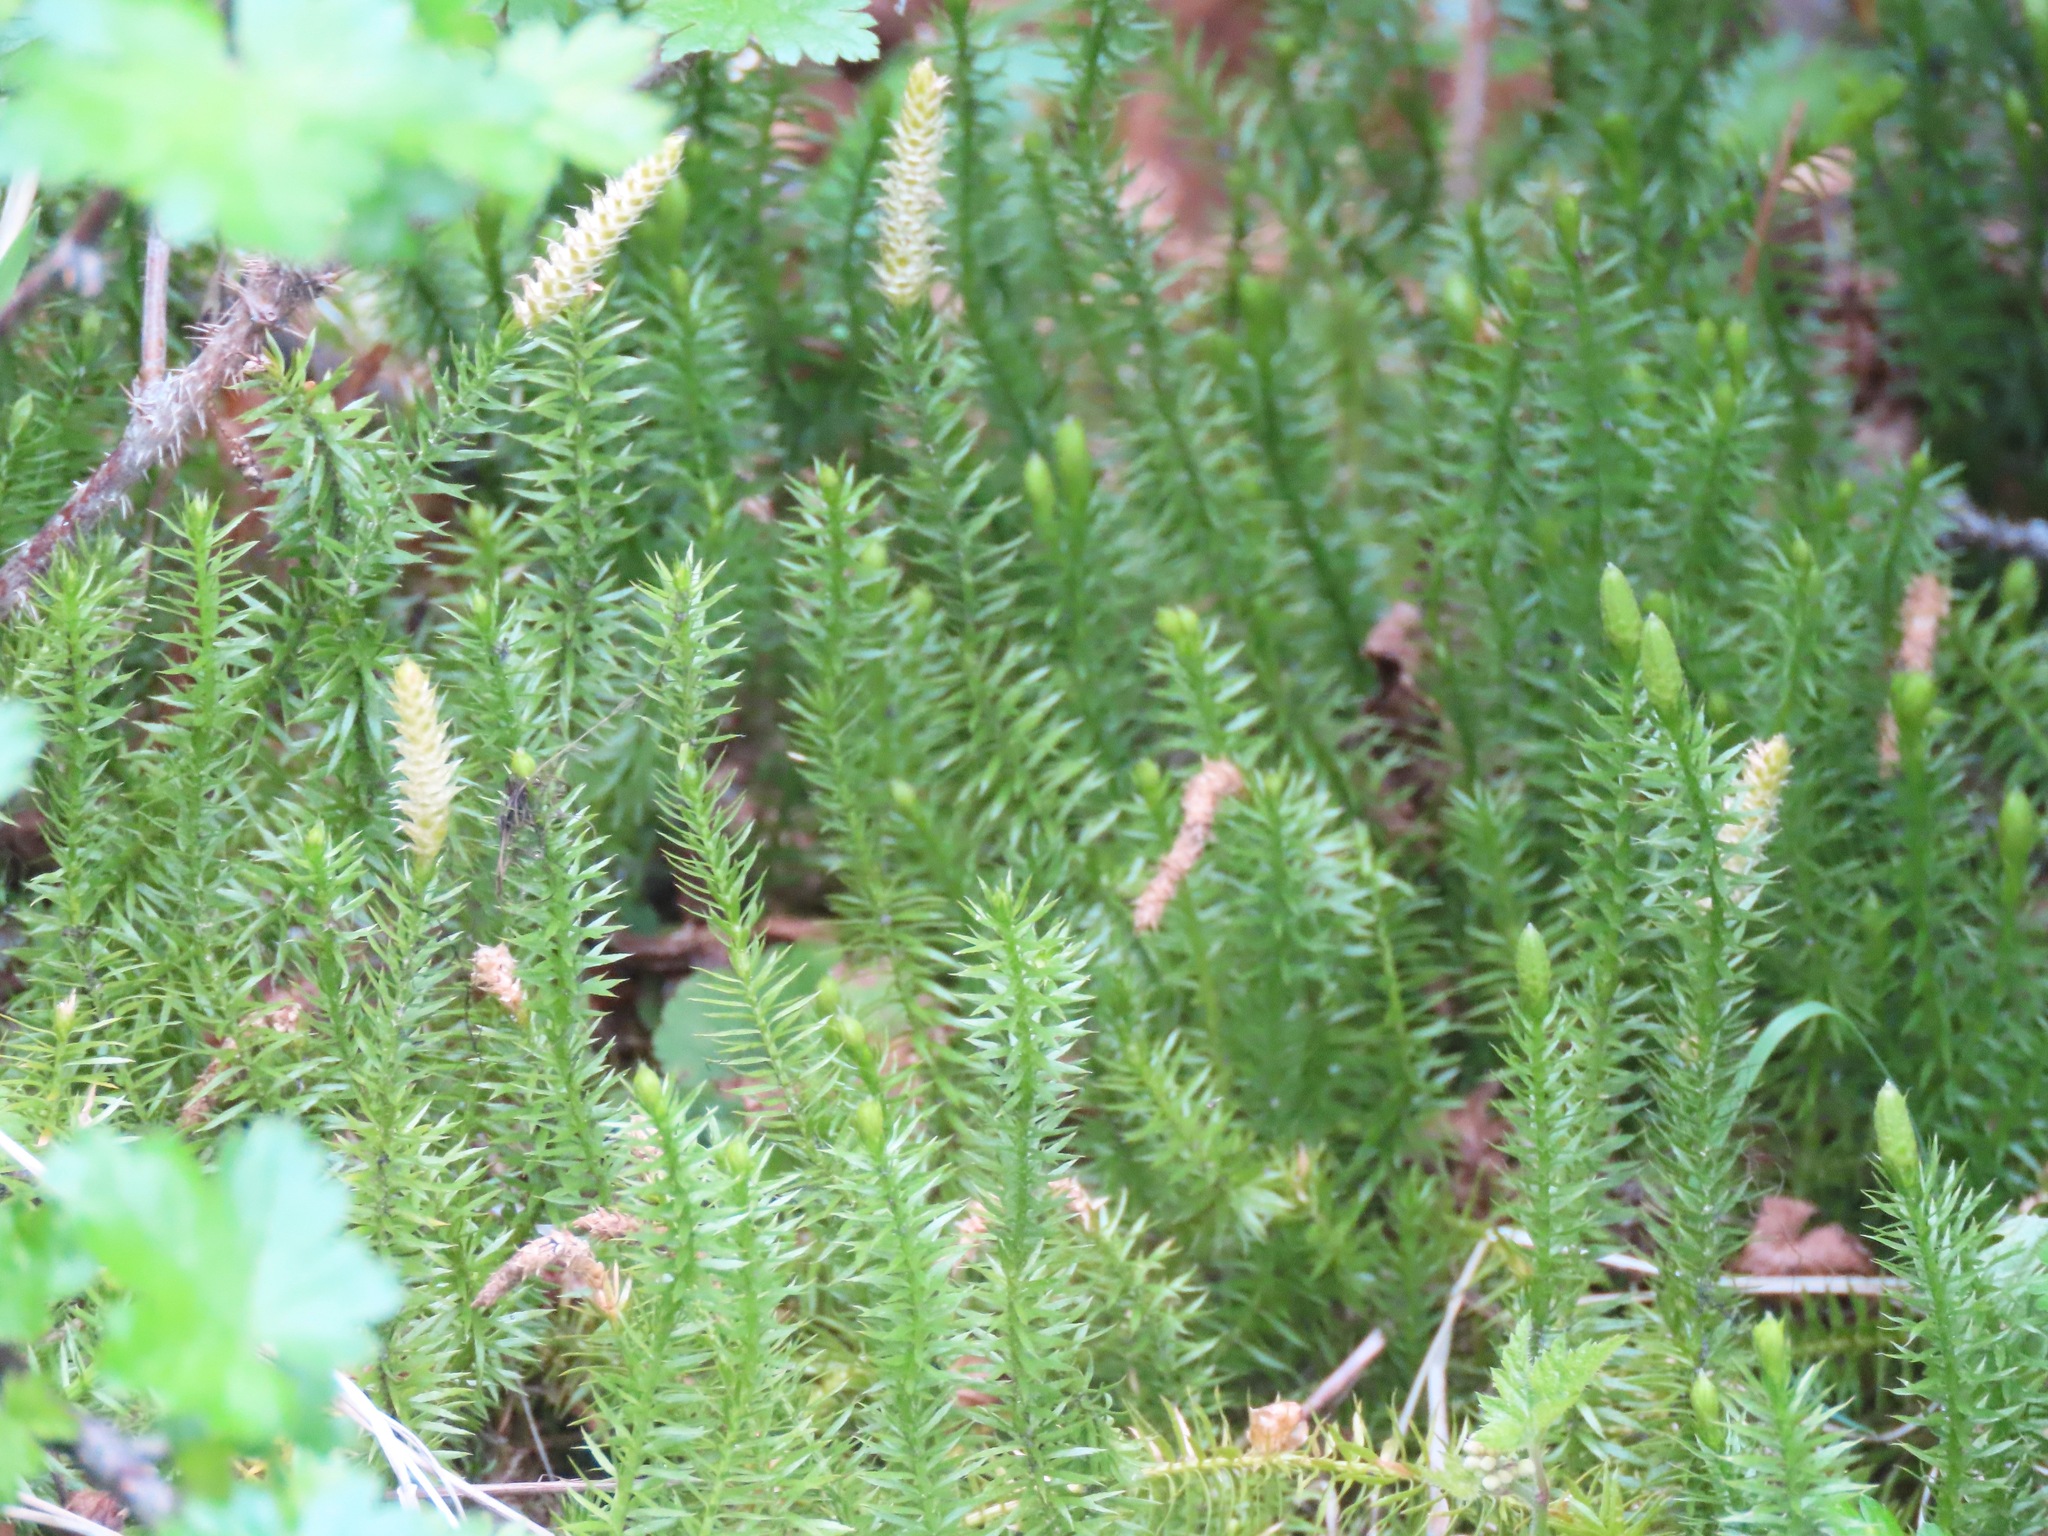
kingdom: Plantae
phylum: Tracheophyta
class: Lycopodiopsida
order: Lycopodiales
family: Lycopodiaceae
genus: Spinulum
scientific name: Spinulum annotinum
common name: Interrupted club-moss
